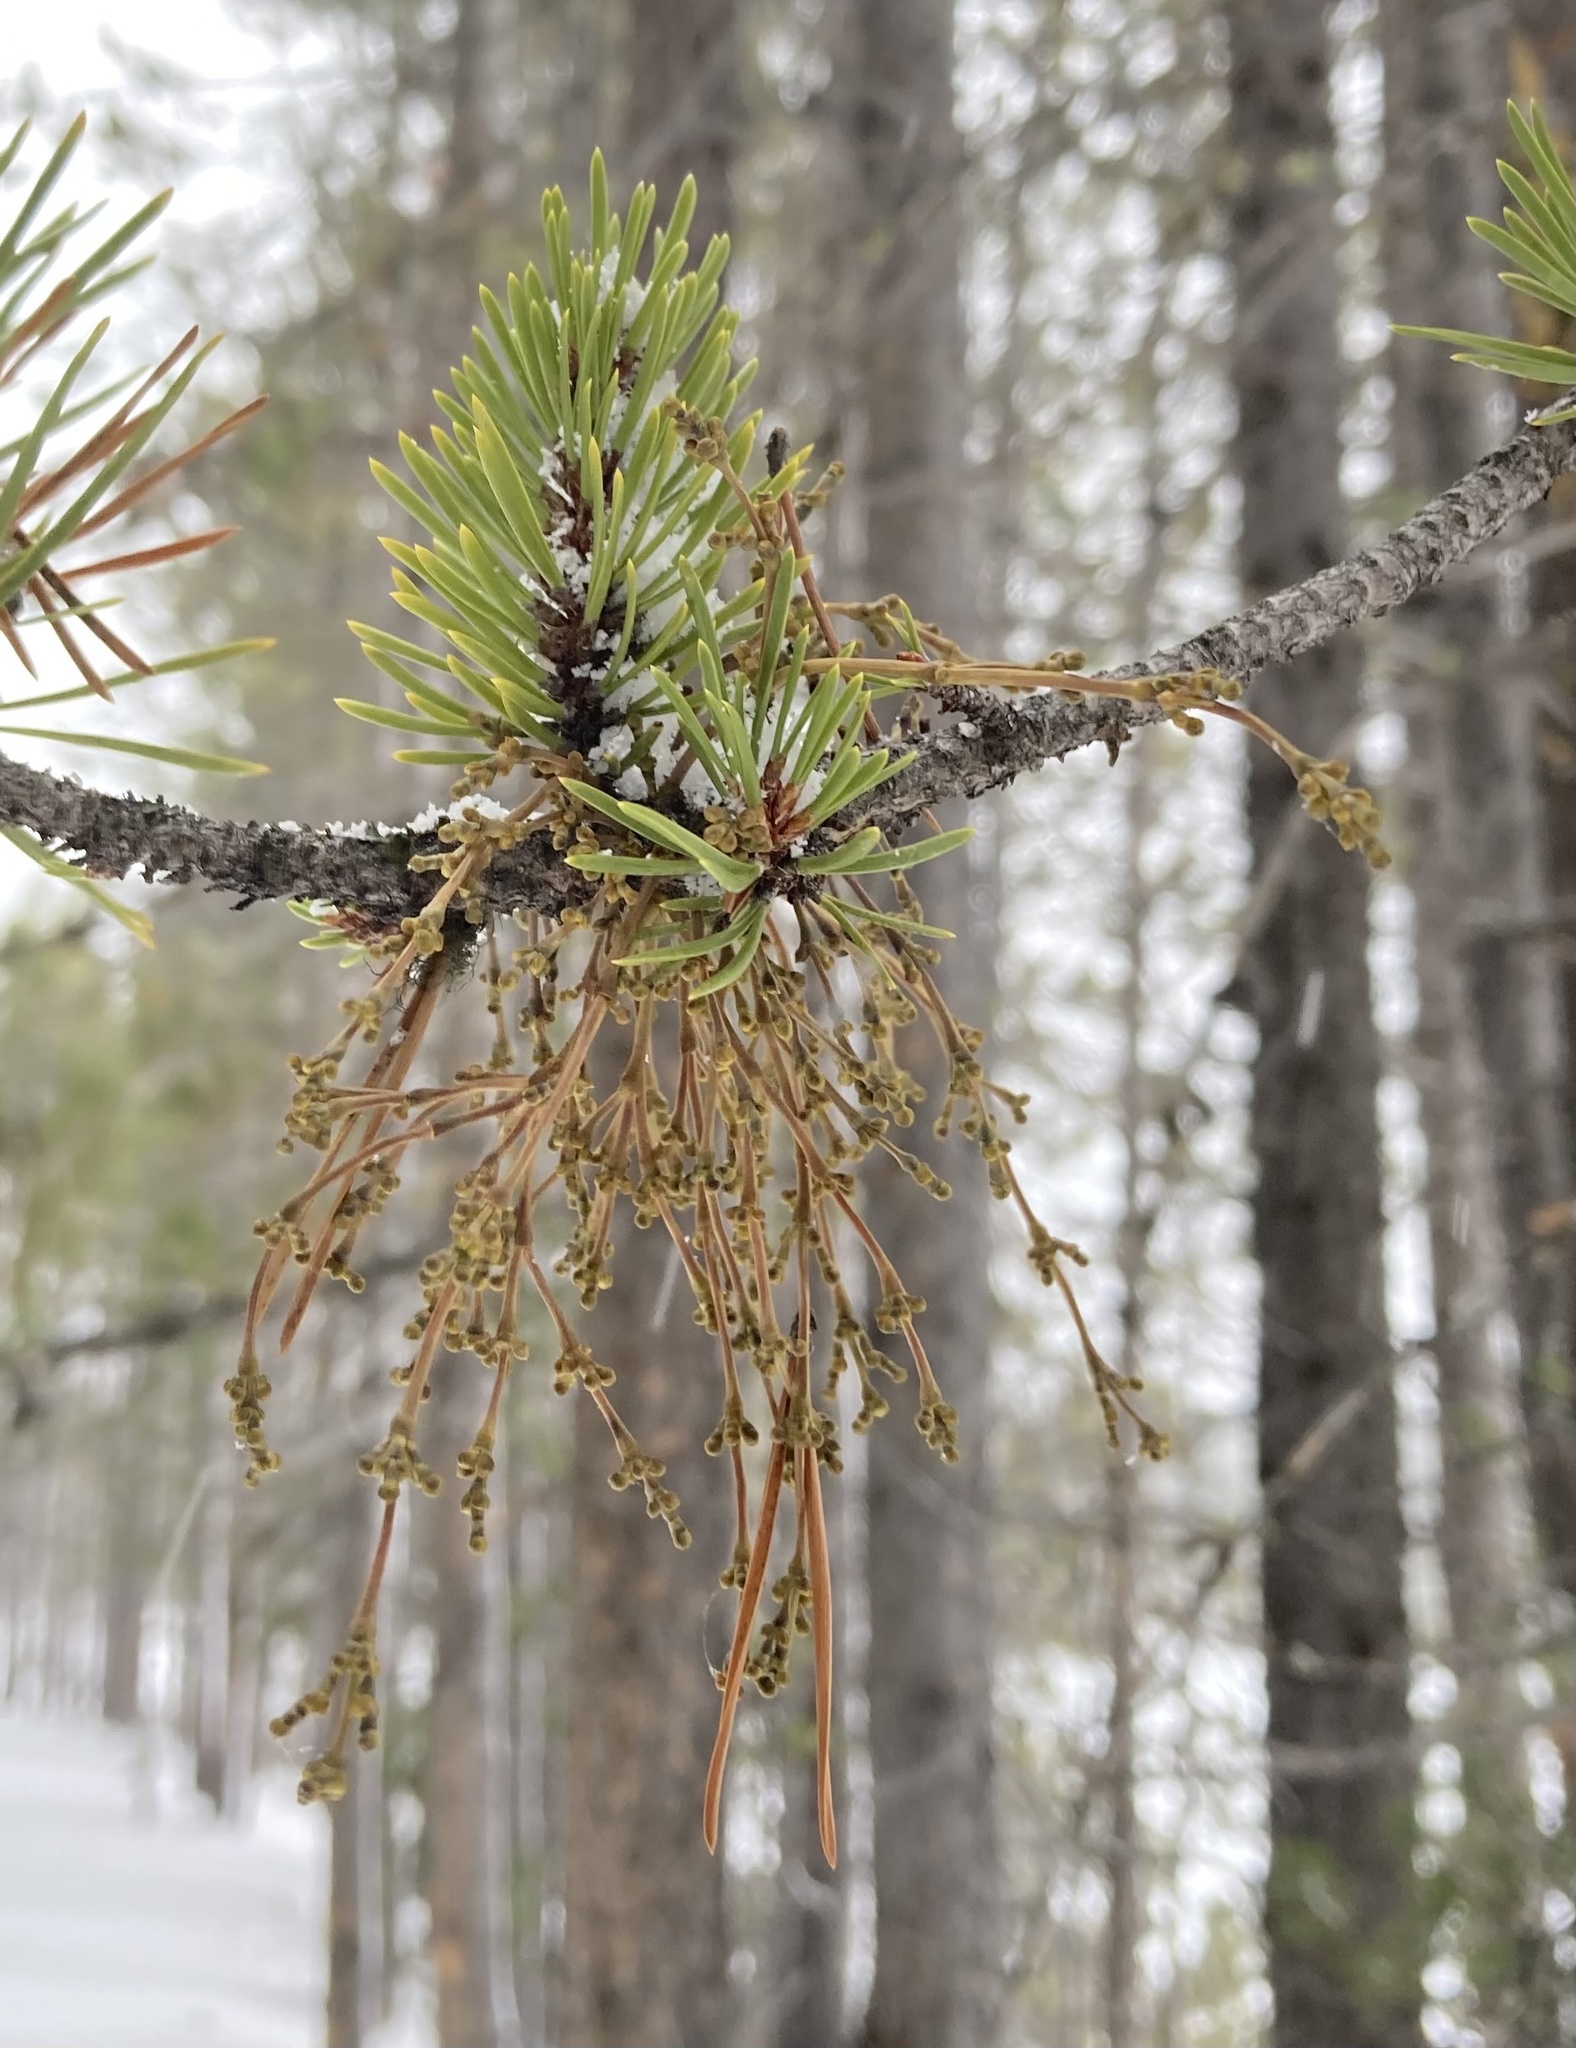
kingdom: Plantae
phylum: Tracheophyta
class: Magnoliopsida
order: Santalales
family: Viscaceae
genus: Arceuthobium
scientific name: Arceuthobium americanum
